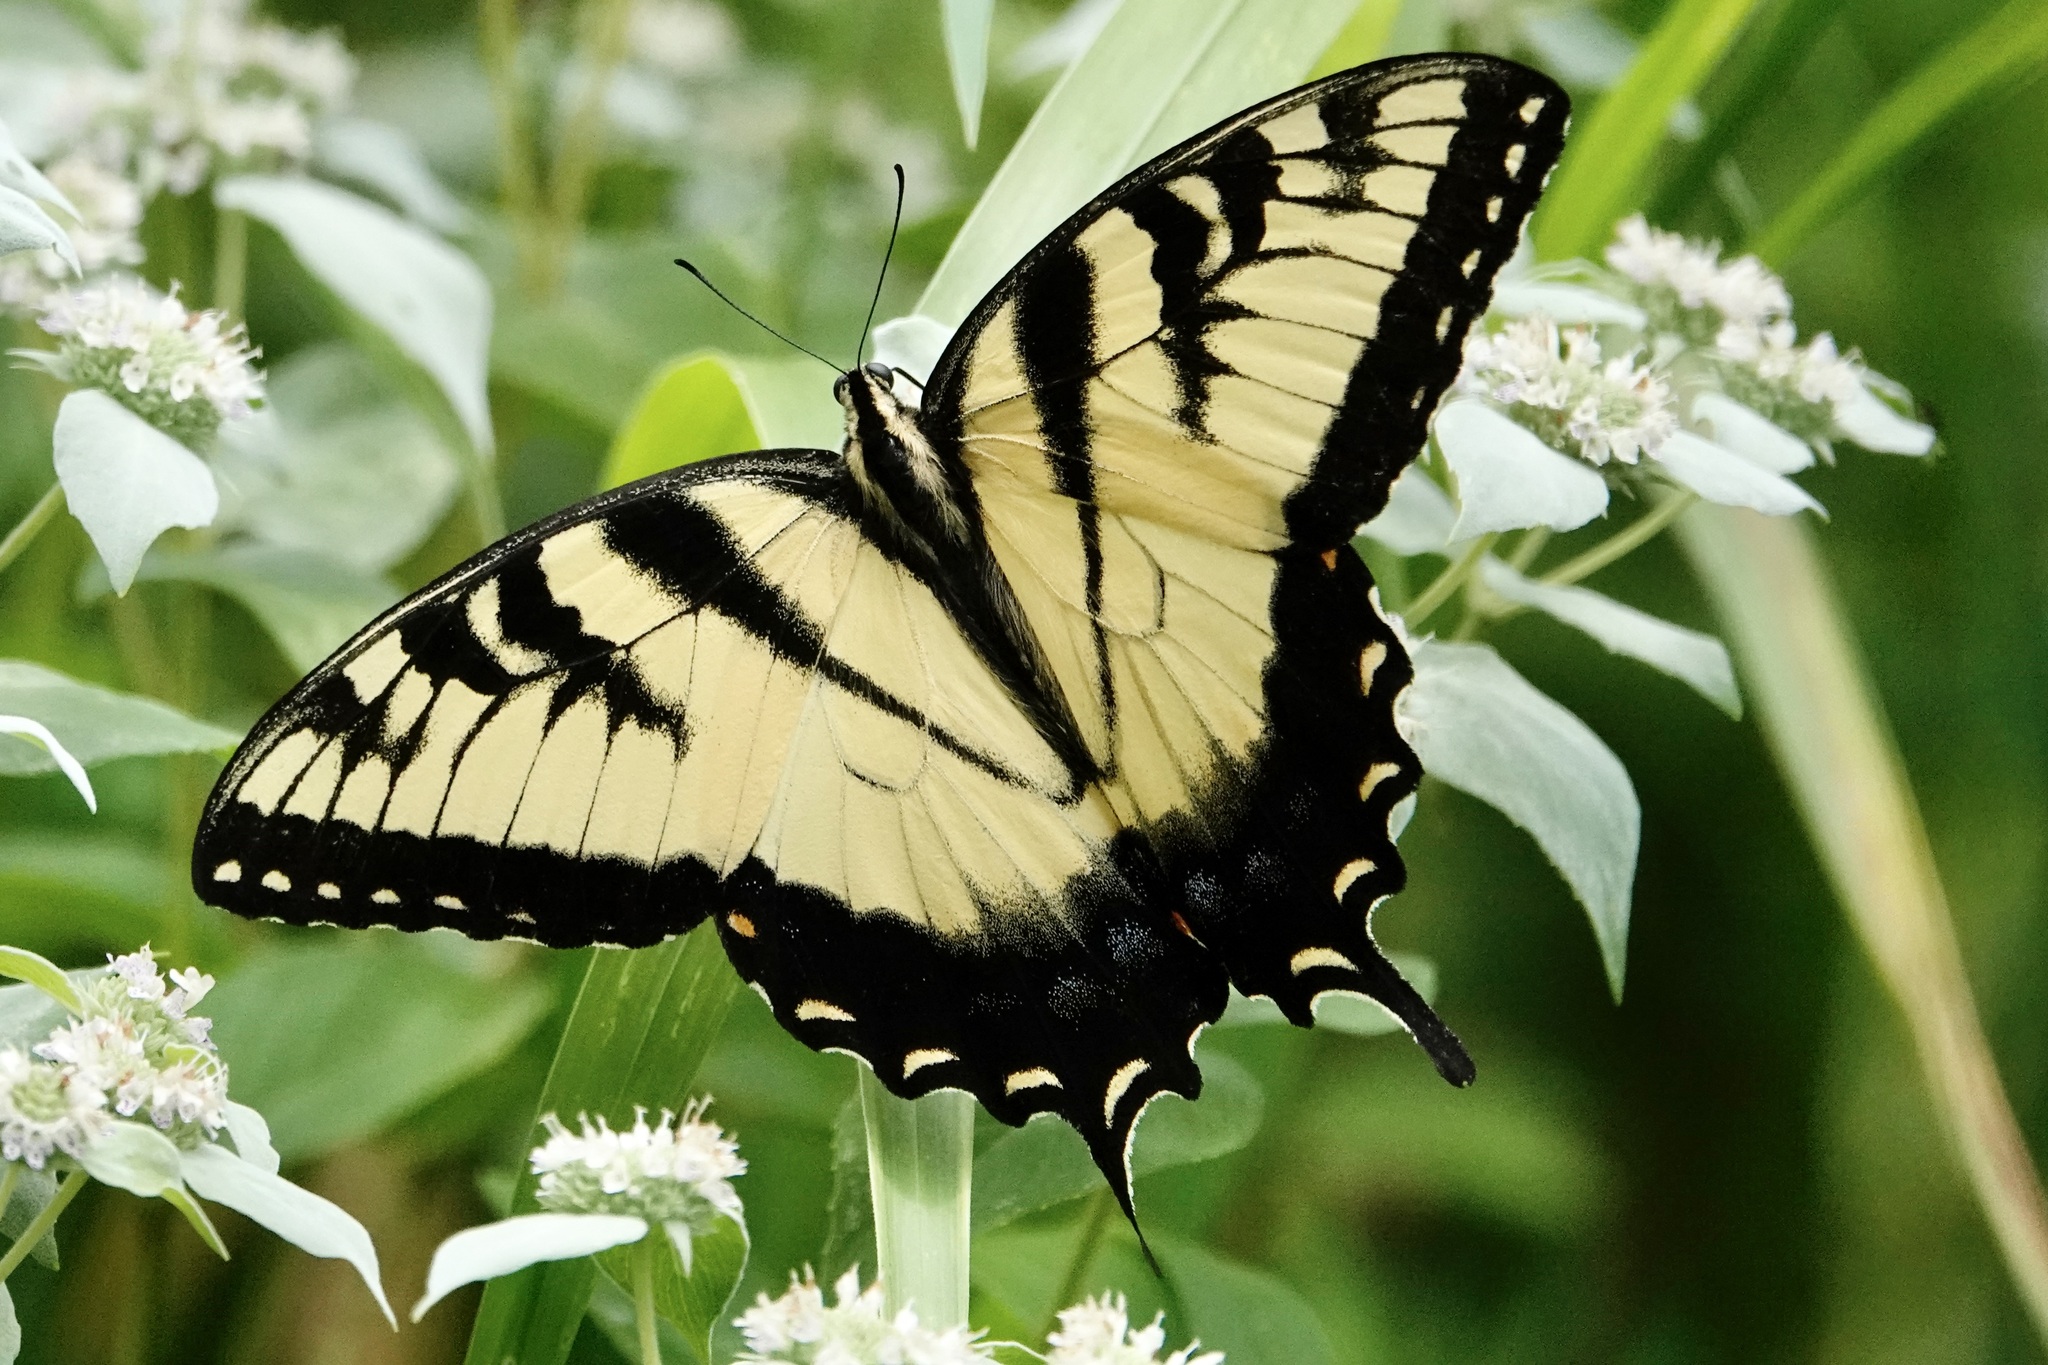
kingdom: Animalia
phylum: Arthropoda
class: Insecta
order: Lepidoptera
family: Papilionidae
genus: Papilio
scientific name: Papilio glaucus
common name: Tiger swallowtail
